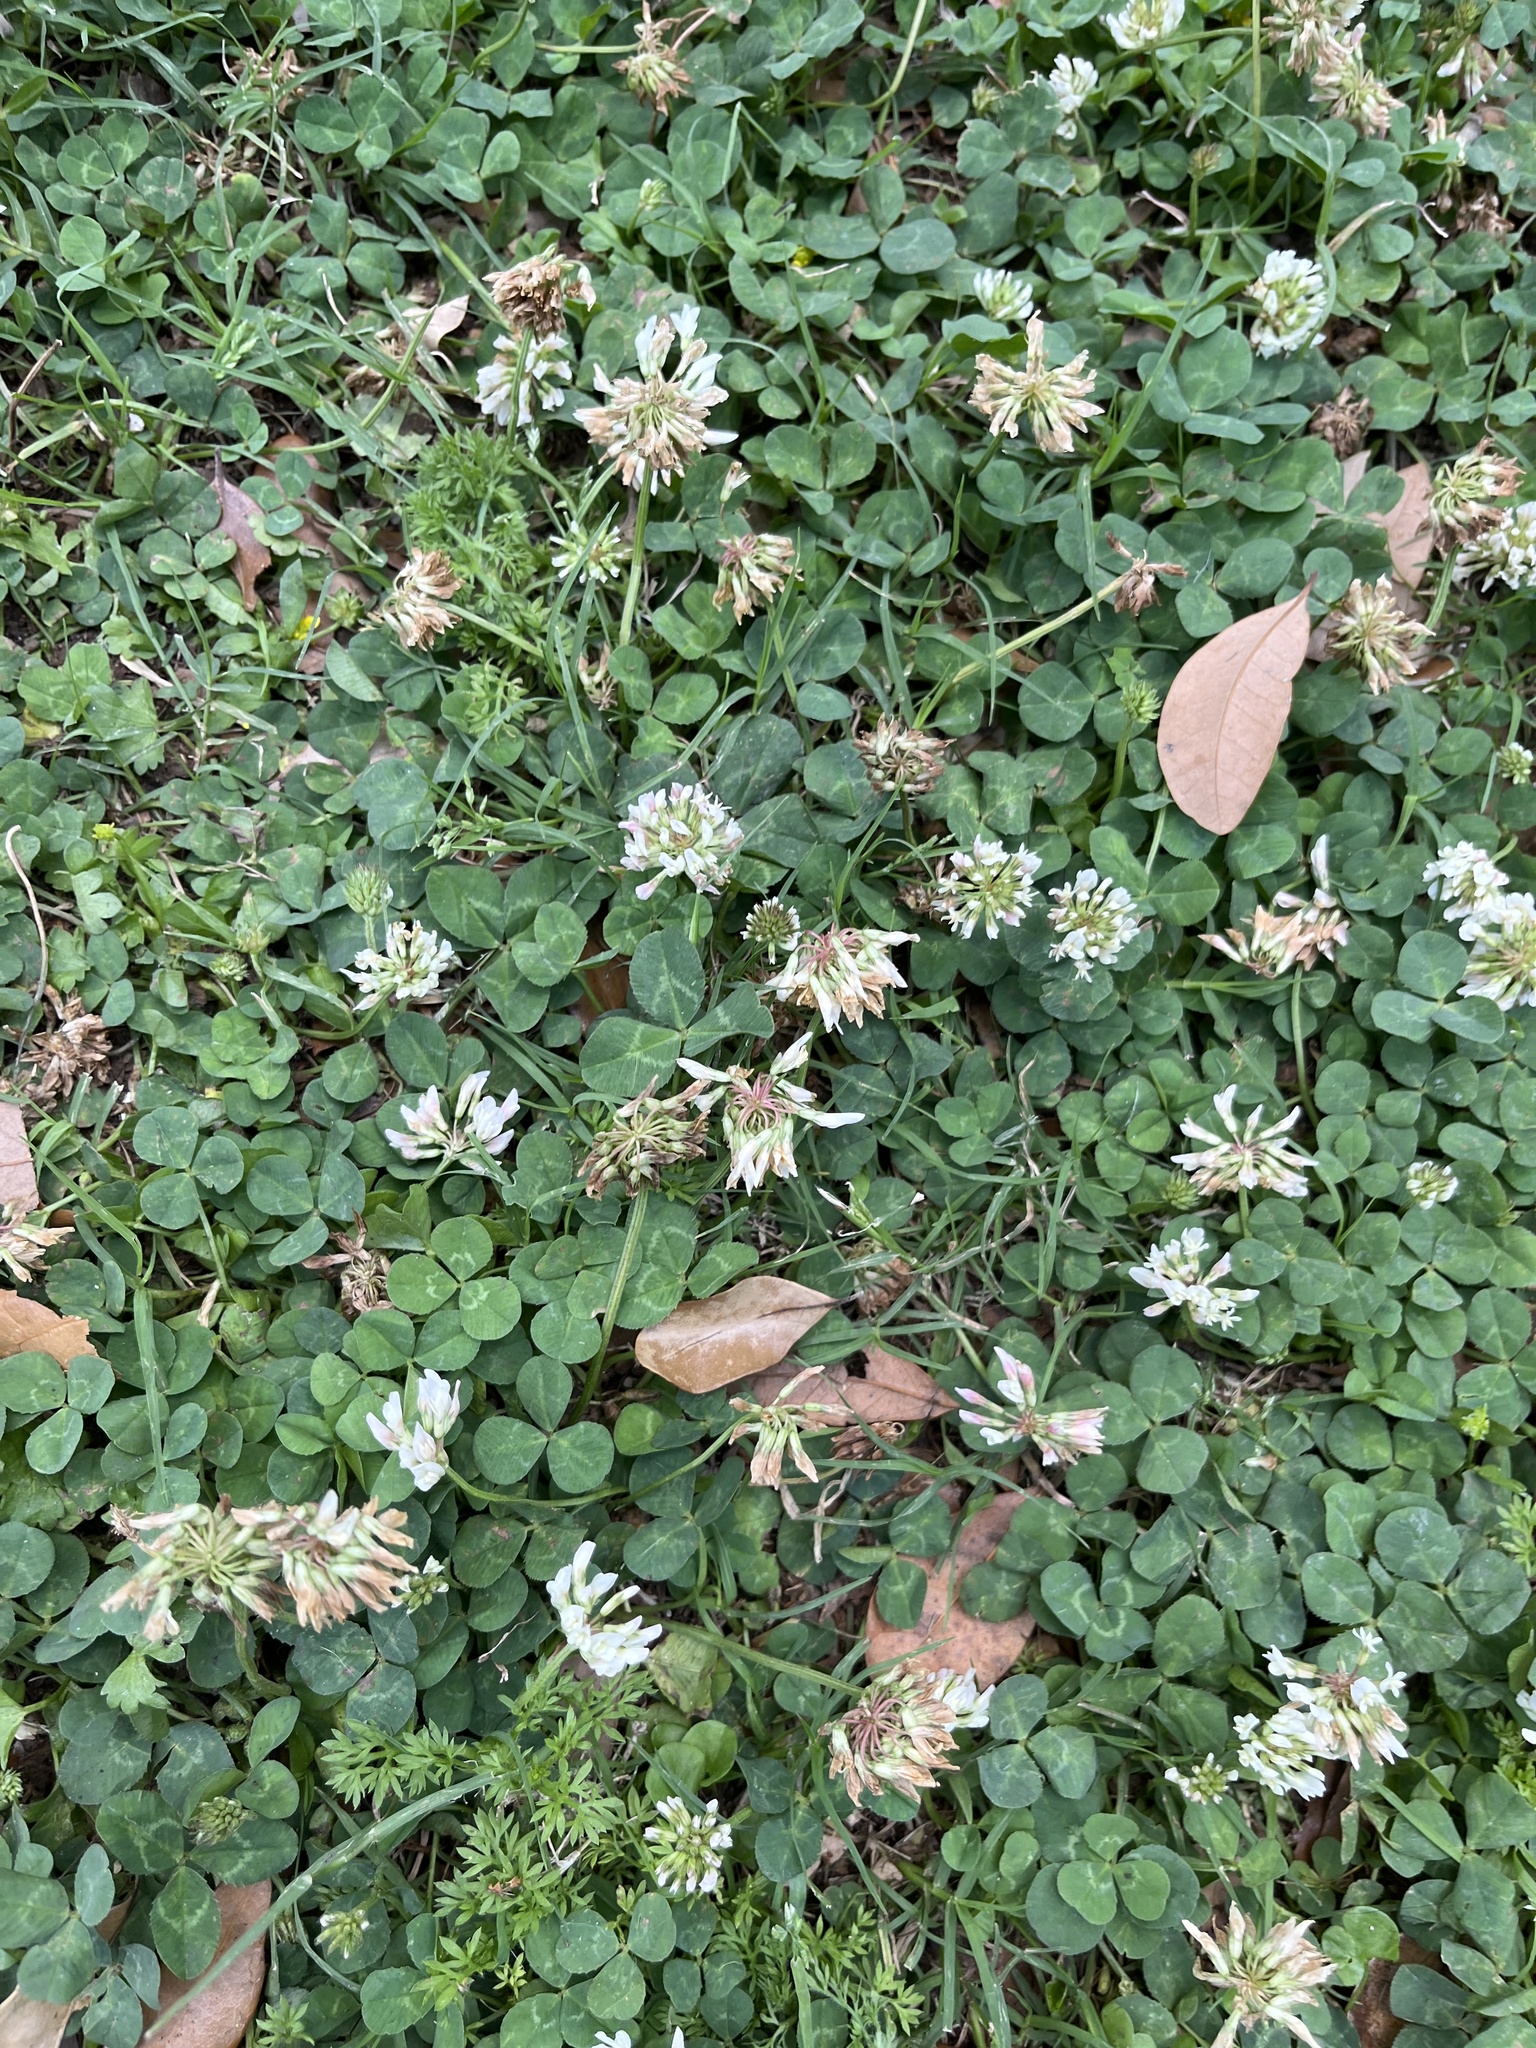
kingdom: Plantae
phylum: Tracheophyta
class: Magnoliopsida
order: Fabales
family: Fabaceae
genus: Trifolium
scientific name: Trifolium repens
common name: White clover
